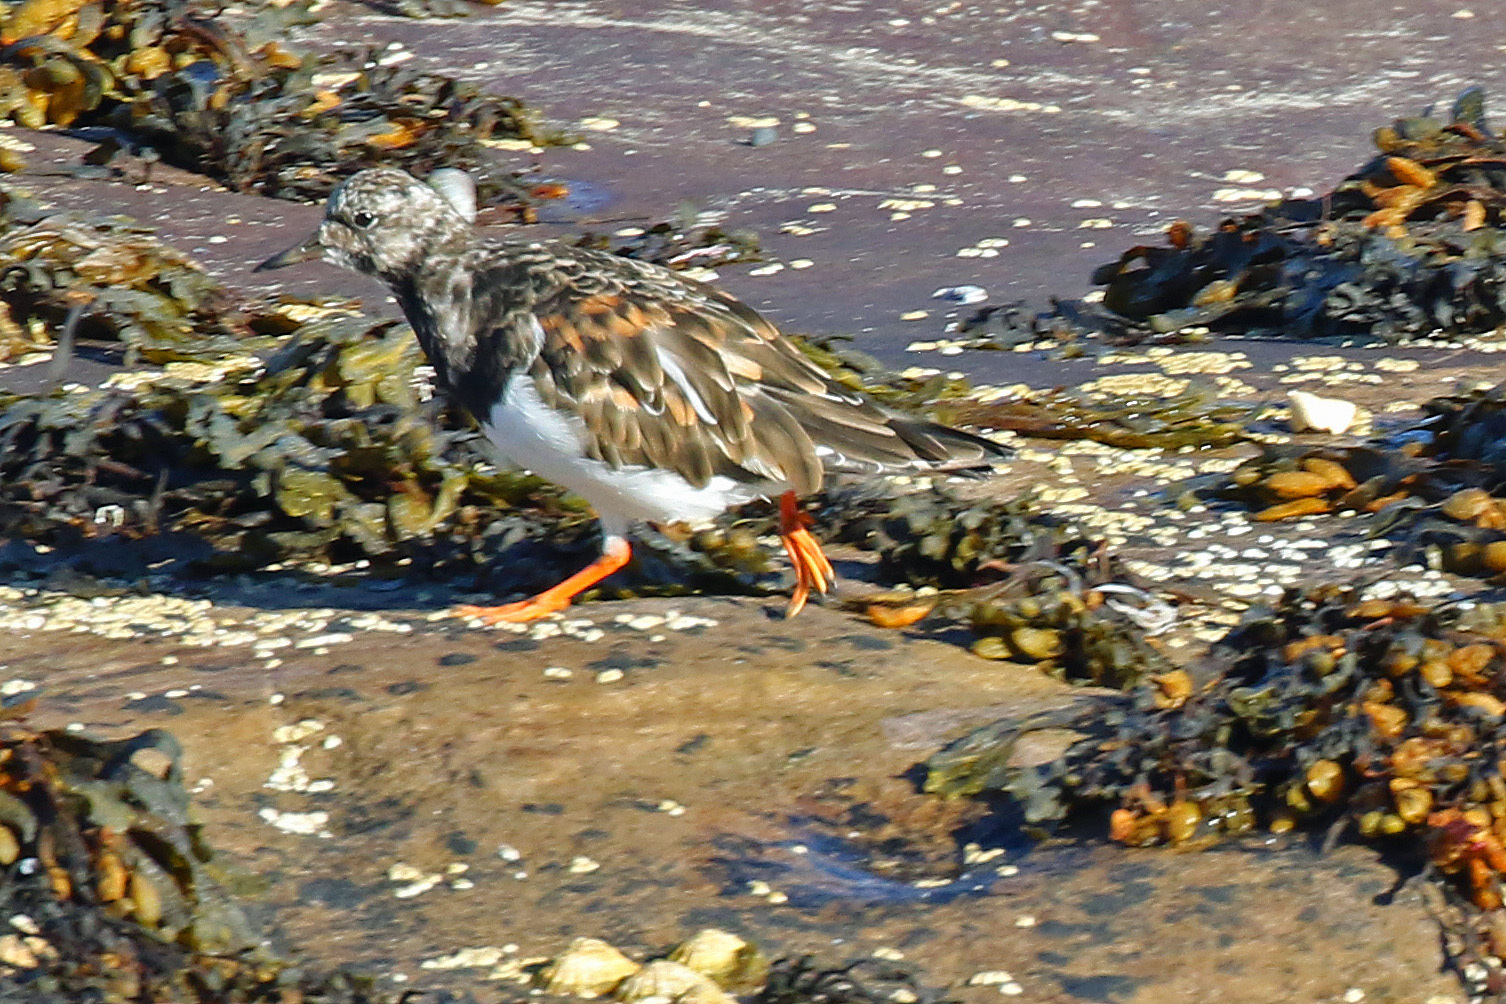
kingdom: Animalia
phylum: Chordata
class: Aves
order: Charadriiformes
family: Scolopacidae
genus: Arenaria
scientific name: Arenaria interpres
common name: Ruddy turnstone
